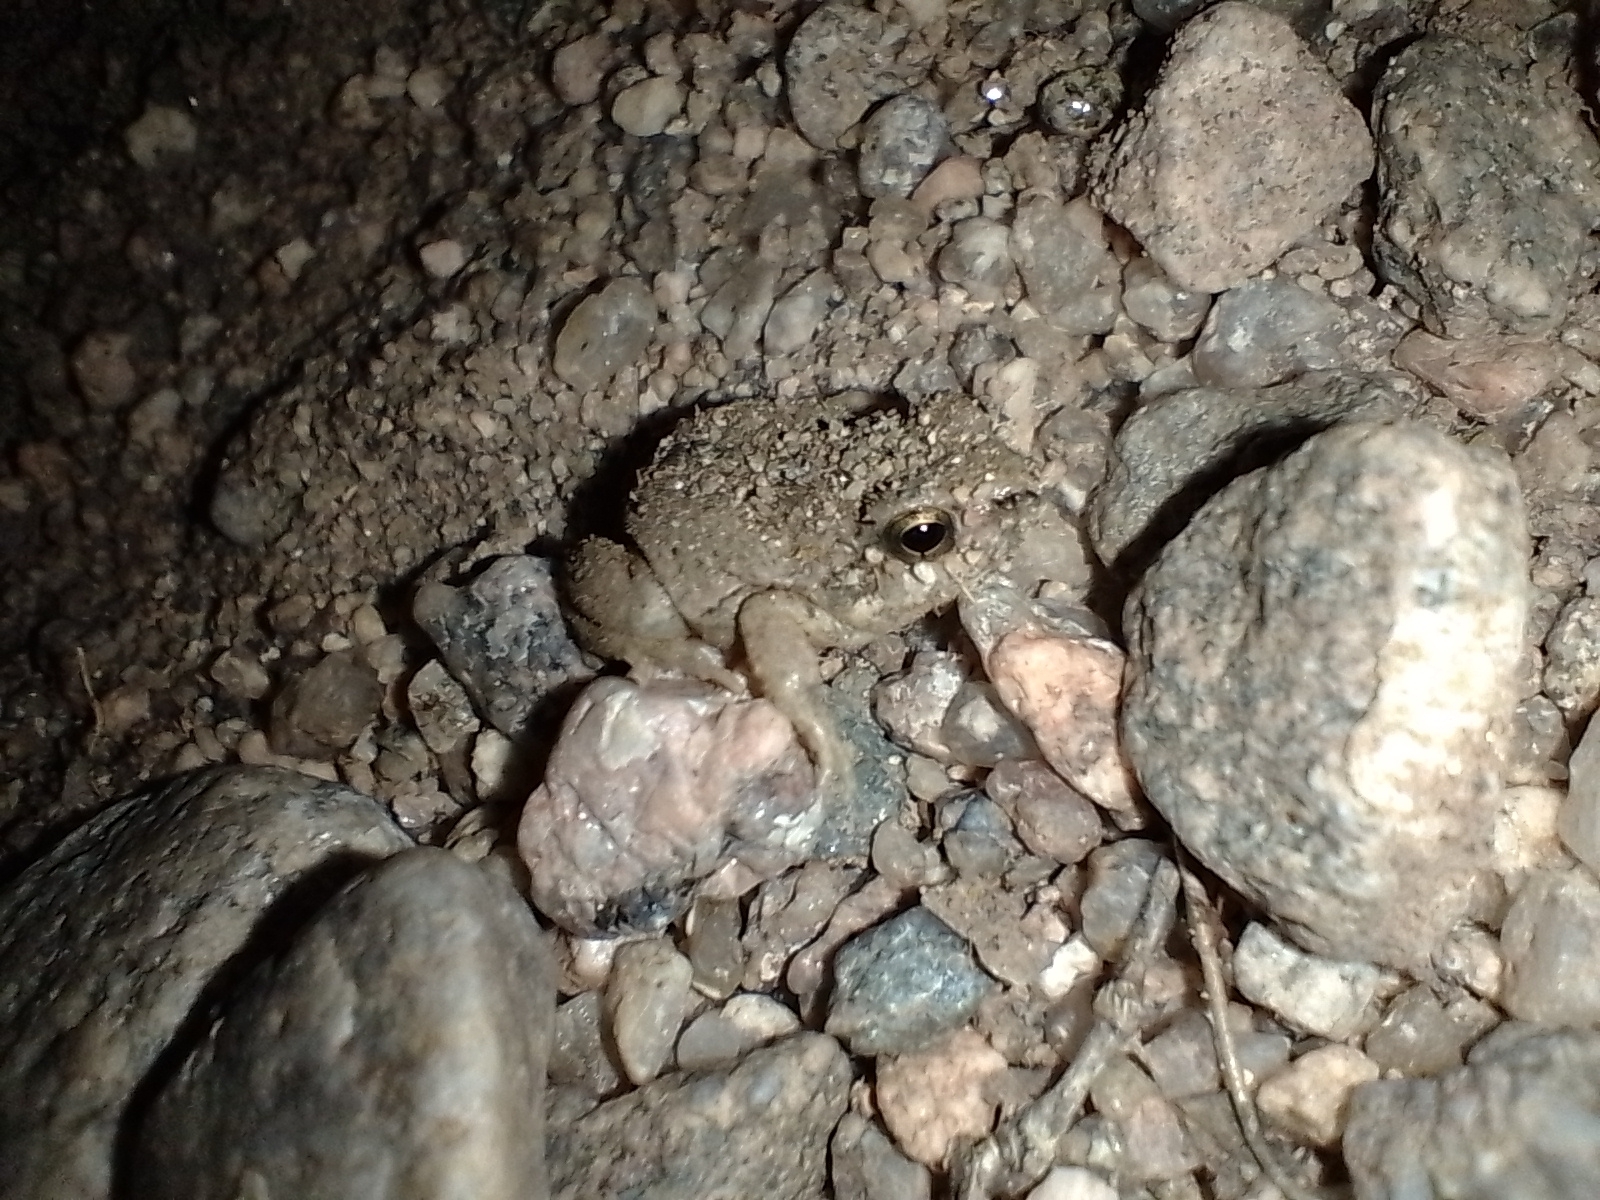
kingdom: Animalia
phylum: Chordata
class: Amphibia
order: Anura
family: Leptodactylidae
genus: Physalaemus
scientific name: Physalaemus biligonigerus
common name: Weeping frog
